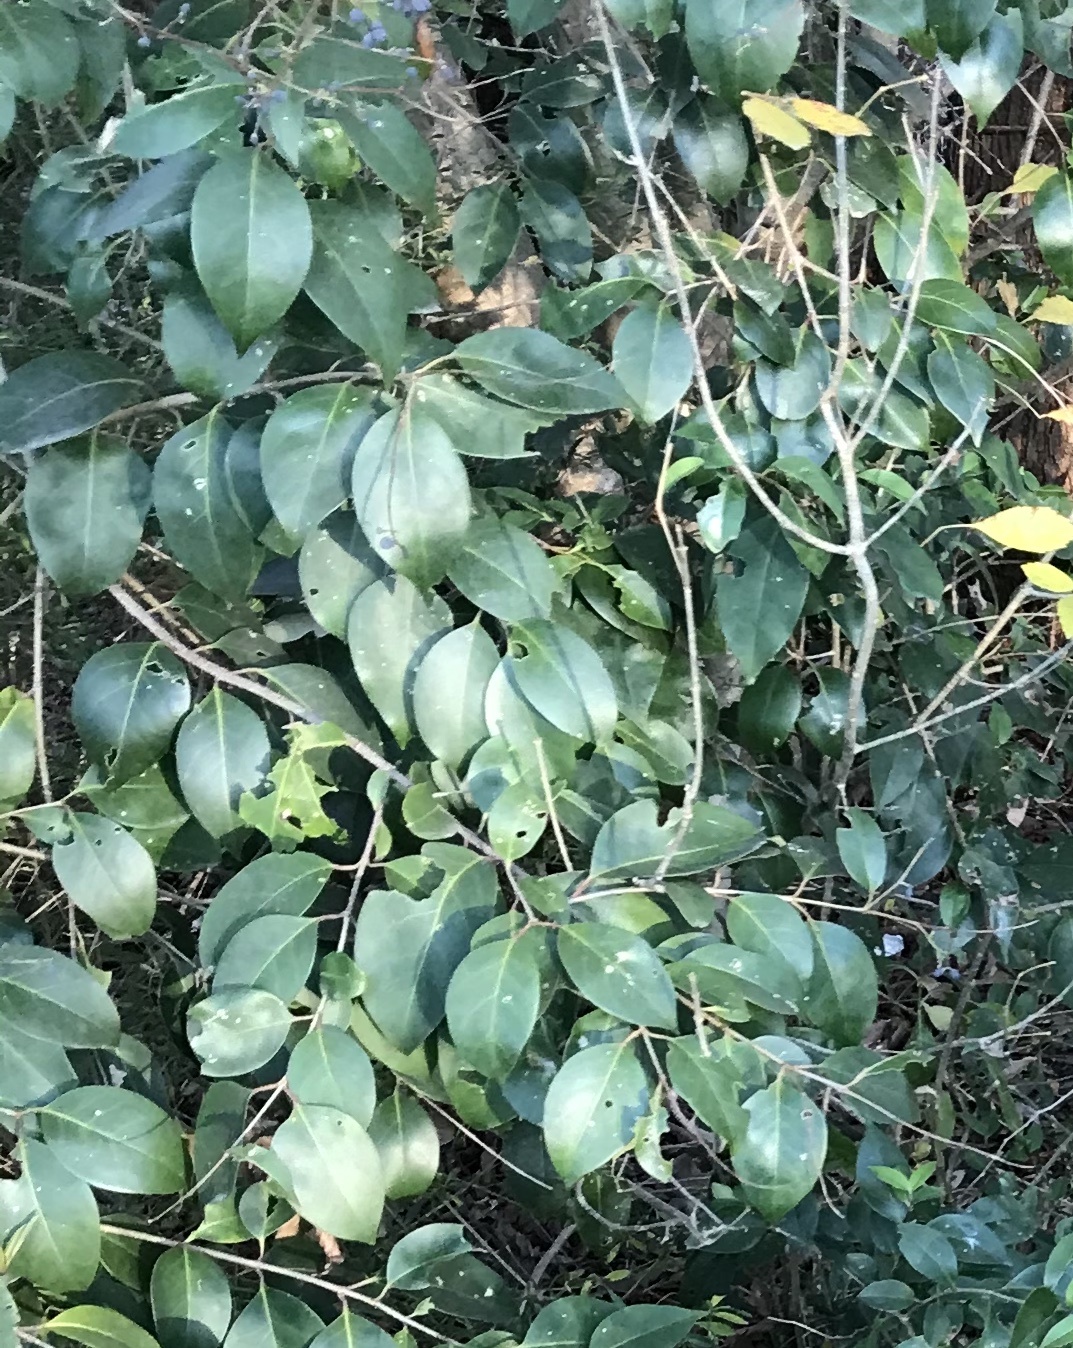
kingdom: Plantae
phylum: Tracheophyta
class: Magnoliopsida
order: Lamiales
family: Oleaceae
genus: Ligustrum
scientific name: Ligustrum lucidum
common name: Glossy privet
